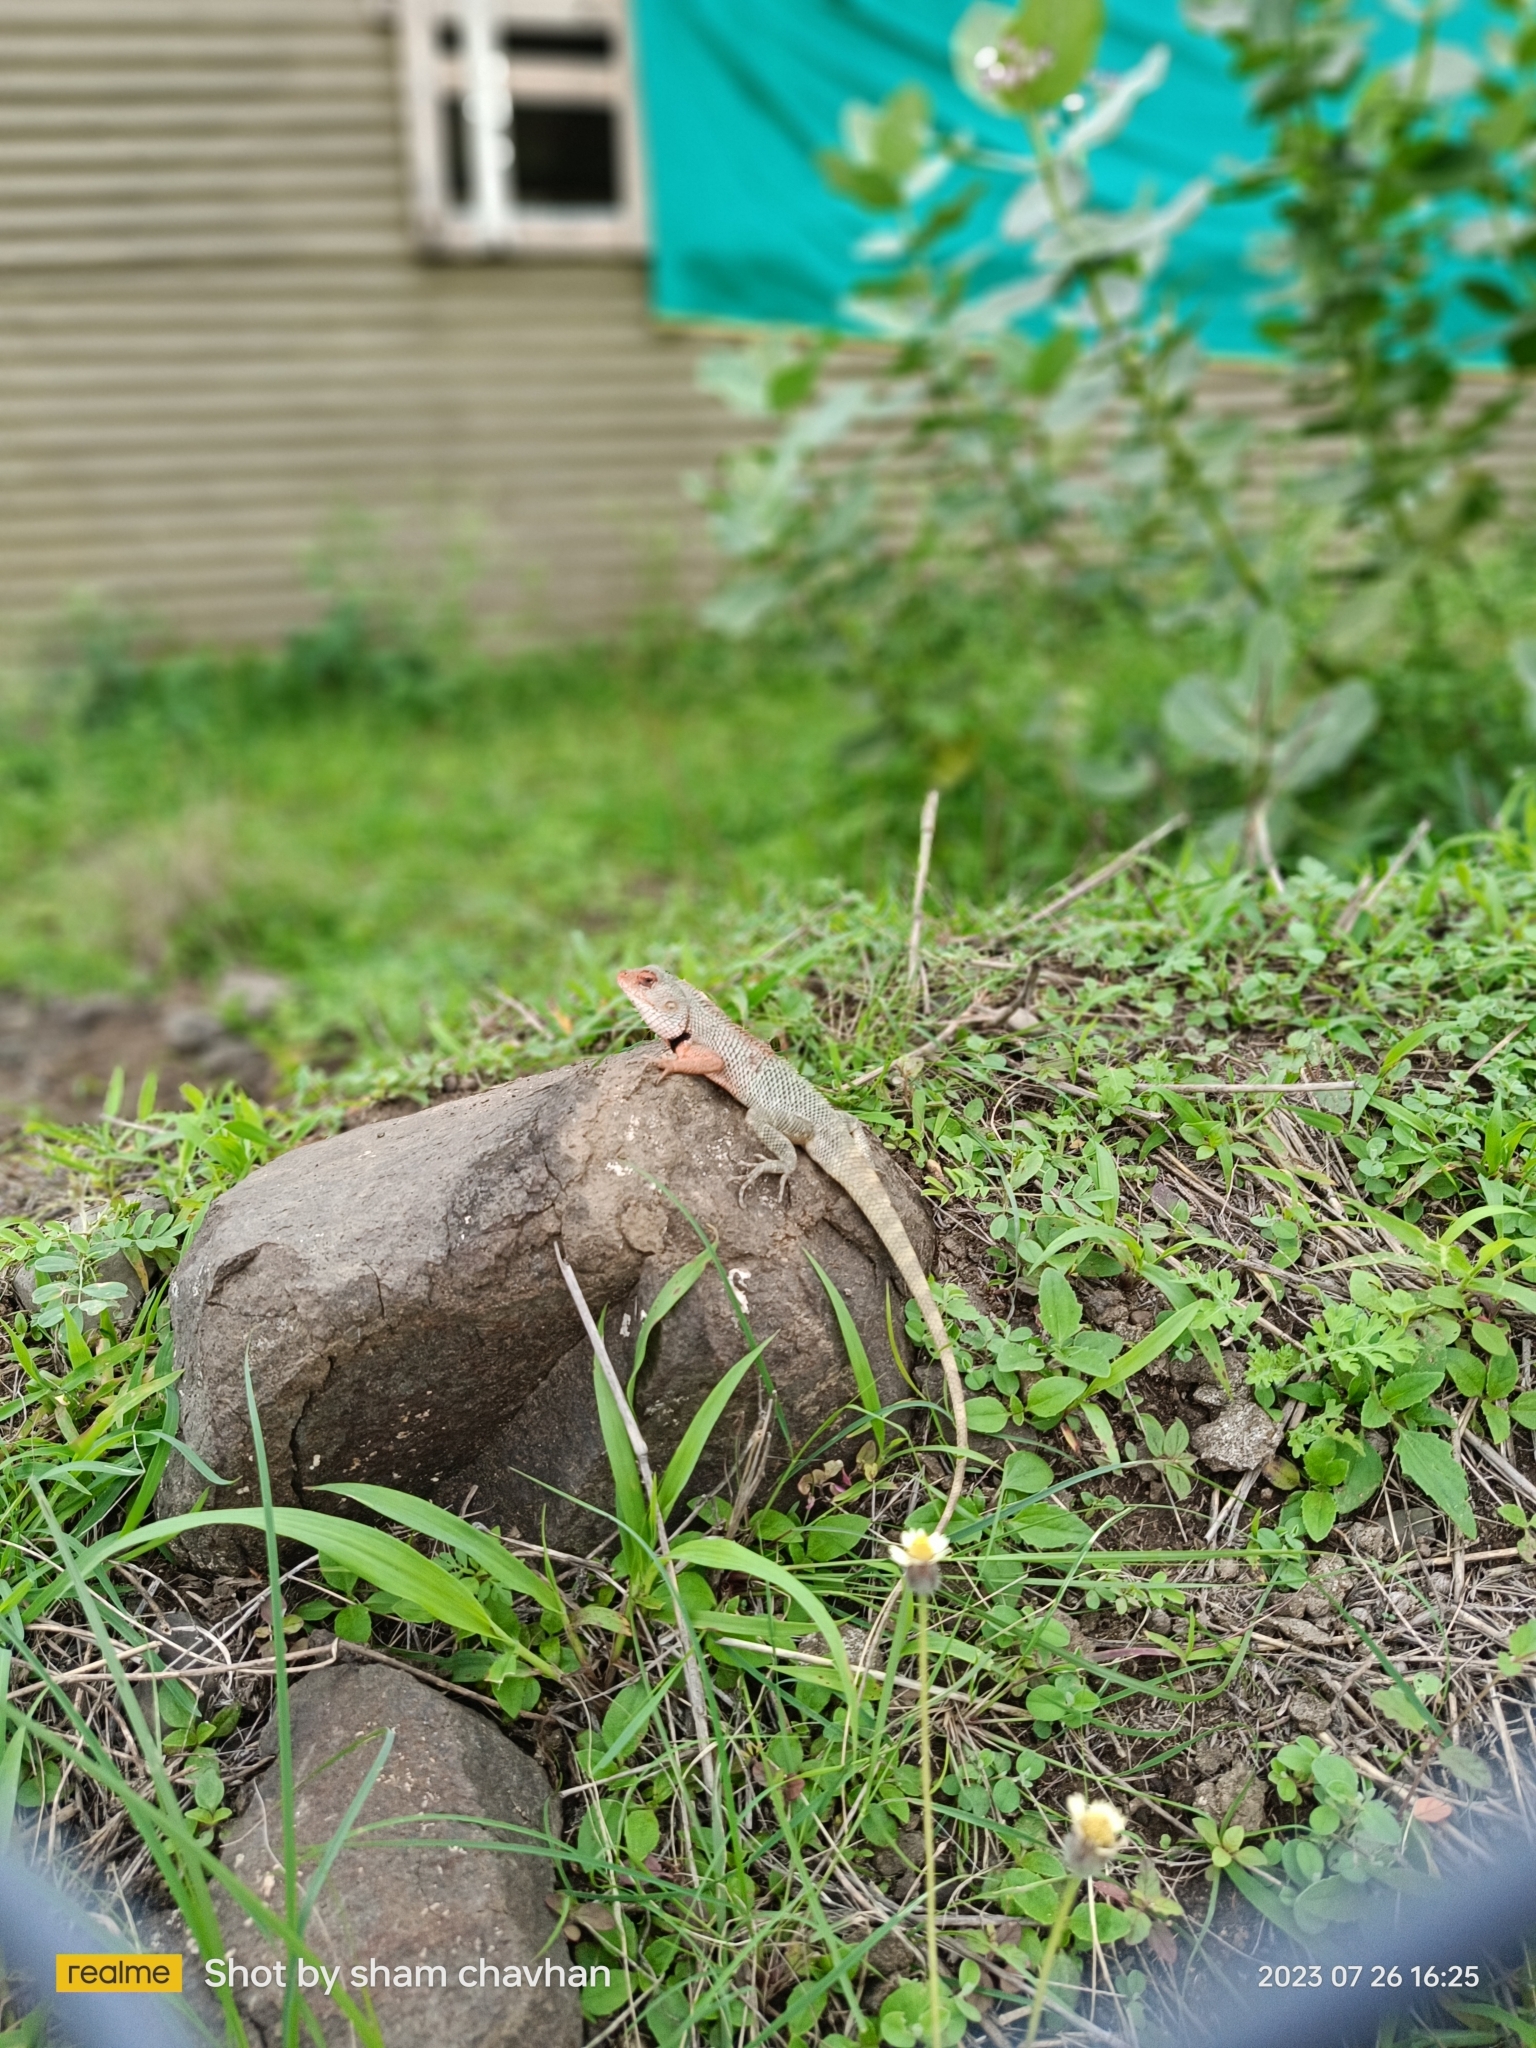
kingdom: Animalia
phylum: Chordata
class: Squamata
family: Agamidae
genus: Calotes
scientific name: Calotes versicolor
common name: Oriental garden lizard
